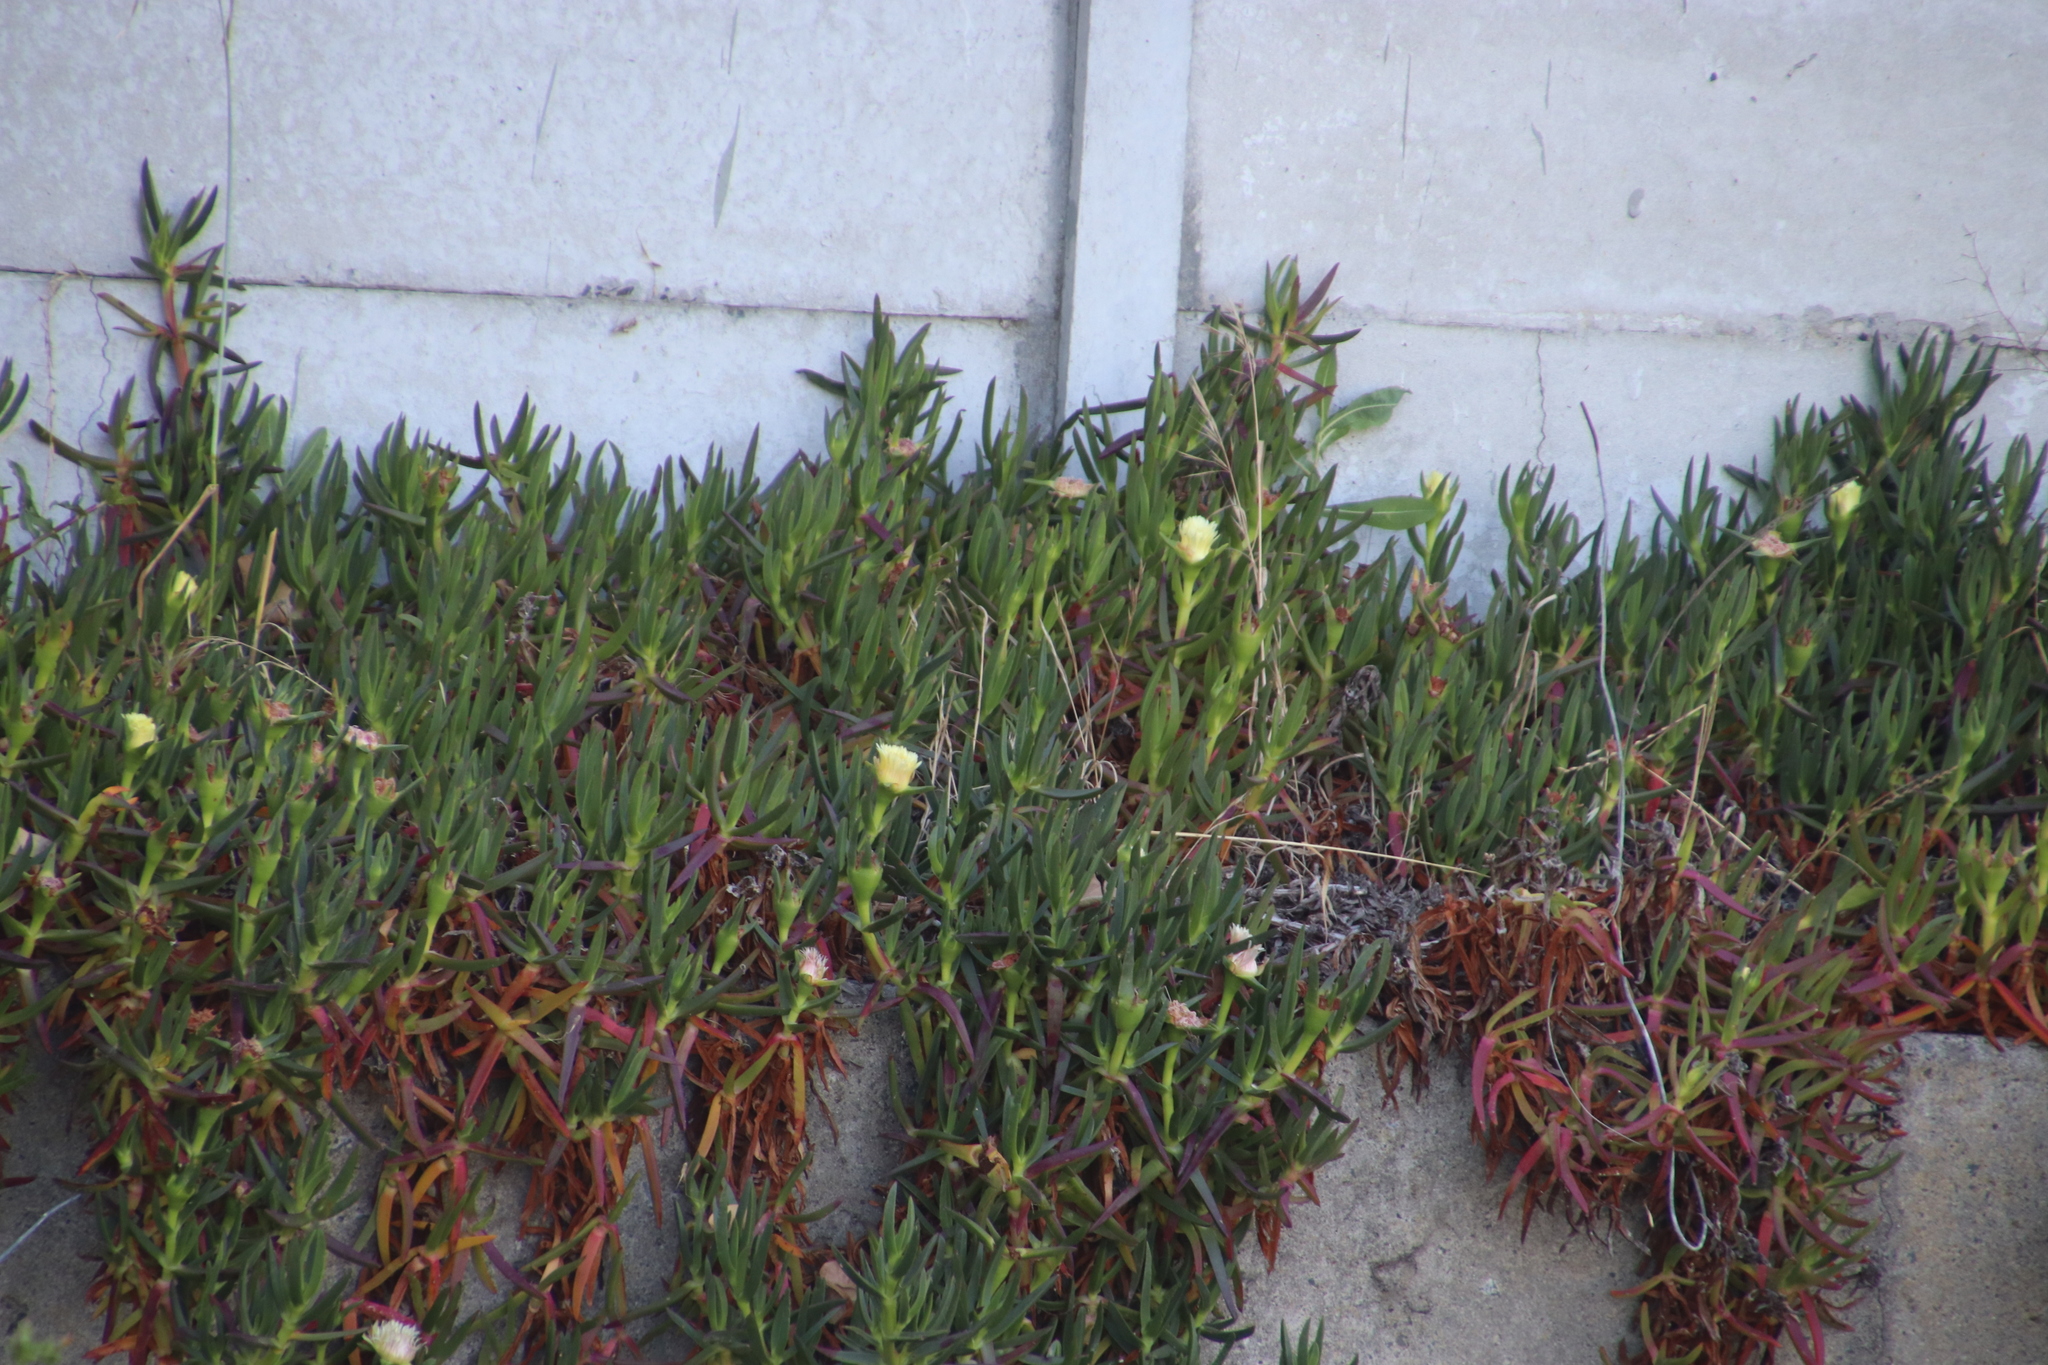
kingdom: Plantae
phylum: Tracheophyta
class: Magnoliopsida
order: Caryophyllales
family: Aizoaceae
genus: Carpobrotus
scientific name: Carpobrotus edulis
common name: Hottentot-fig
